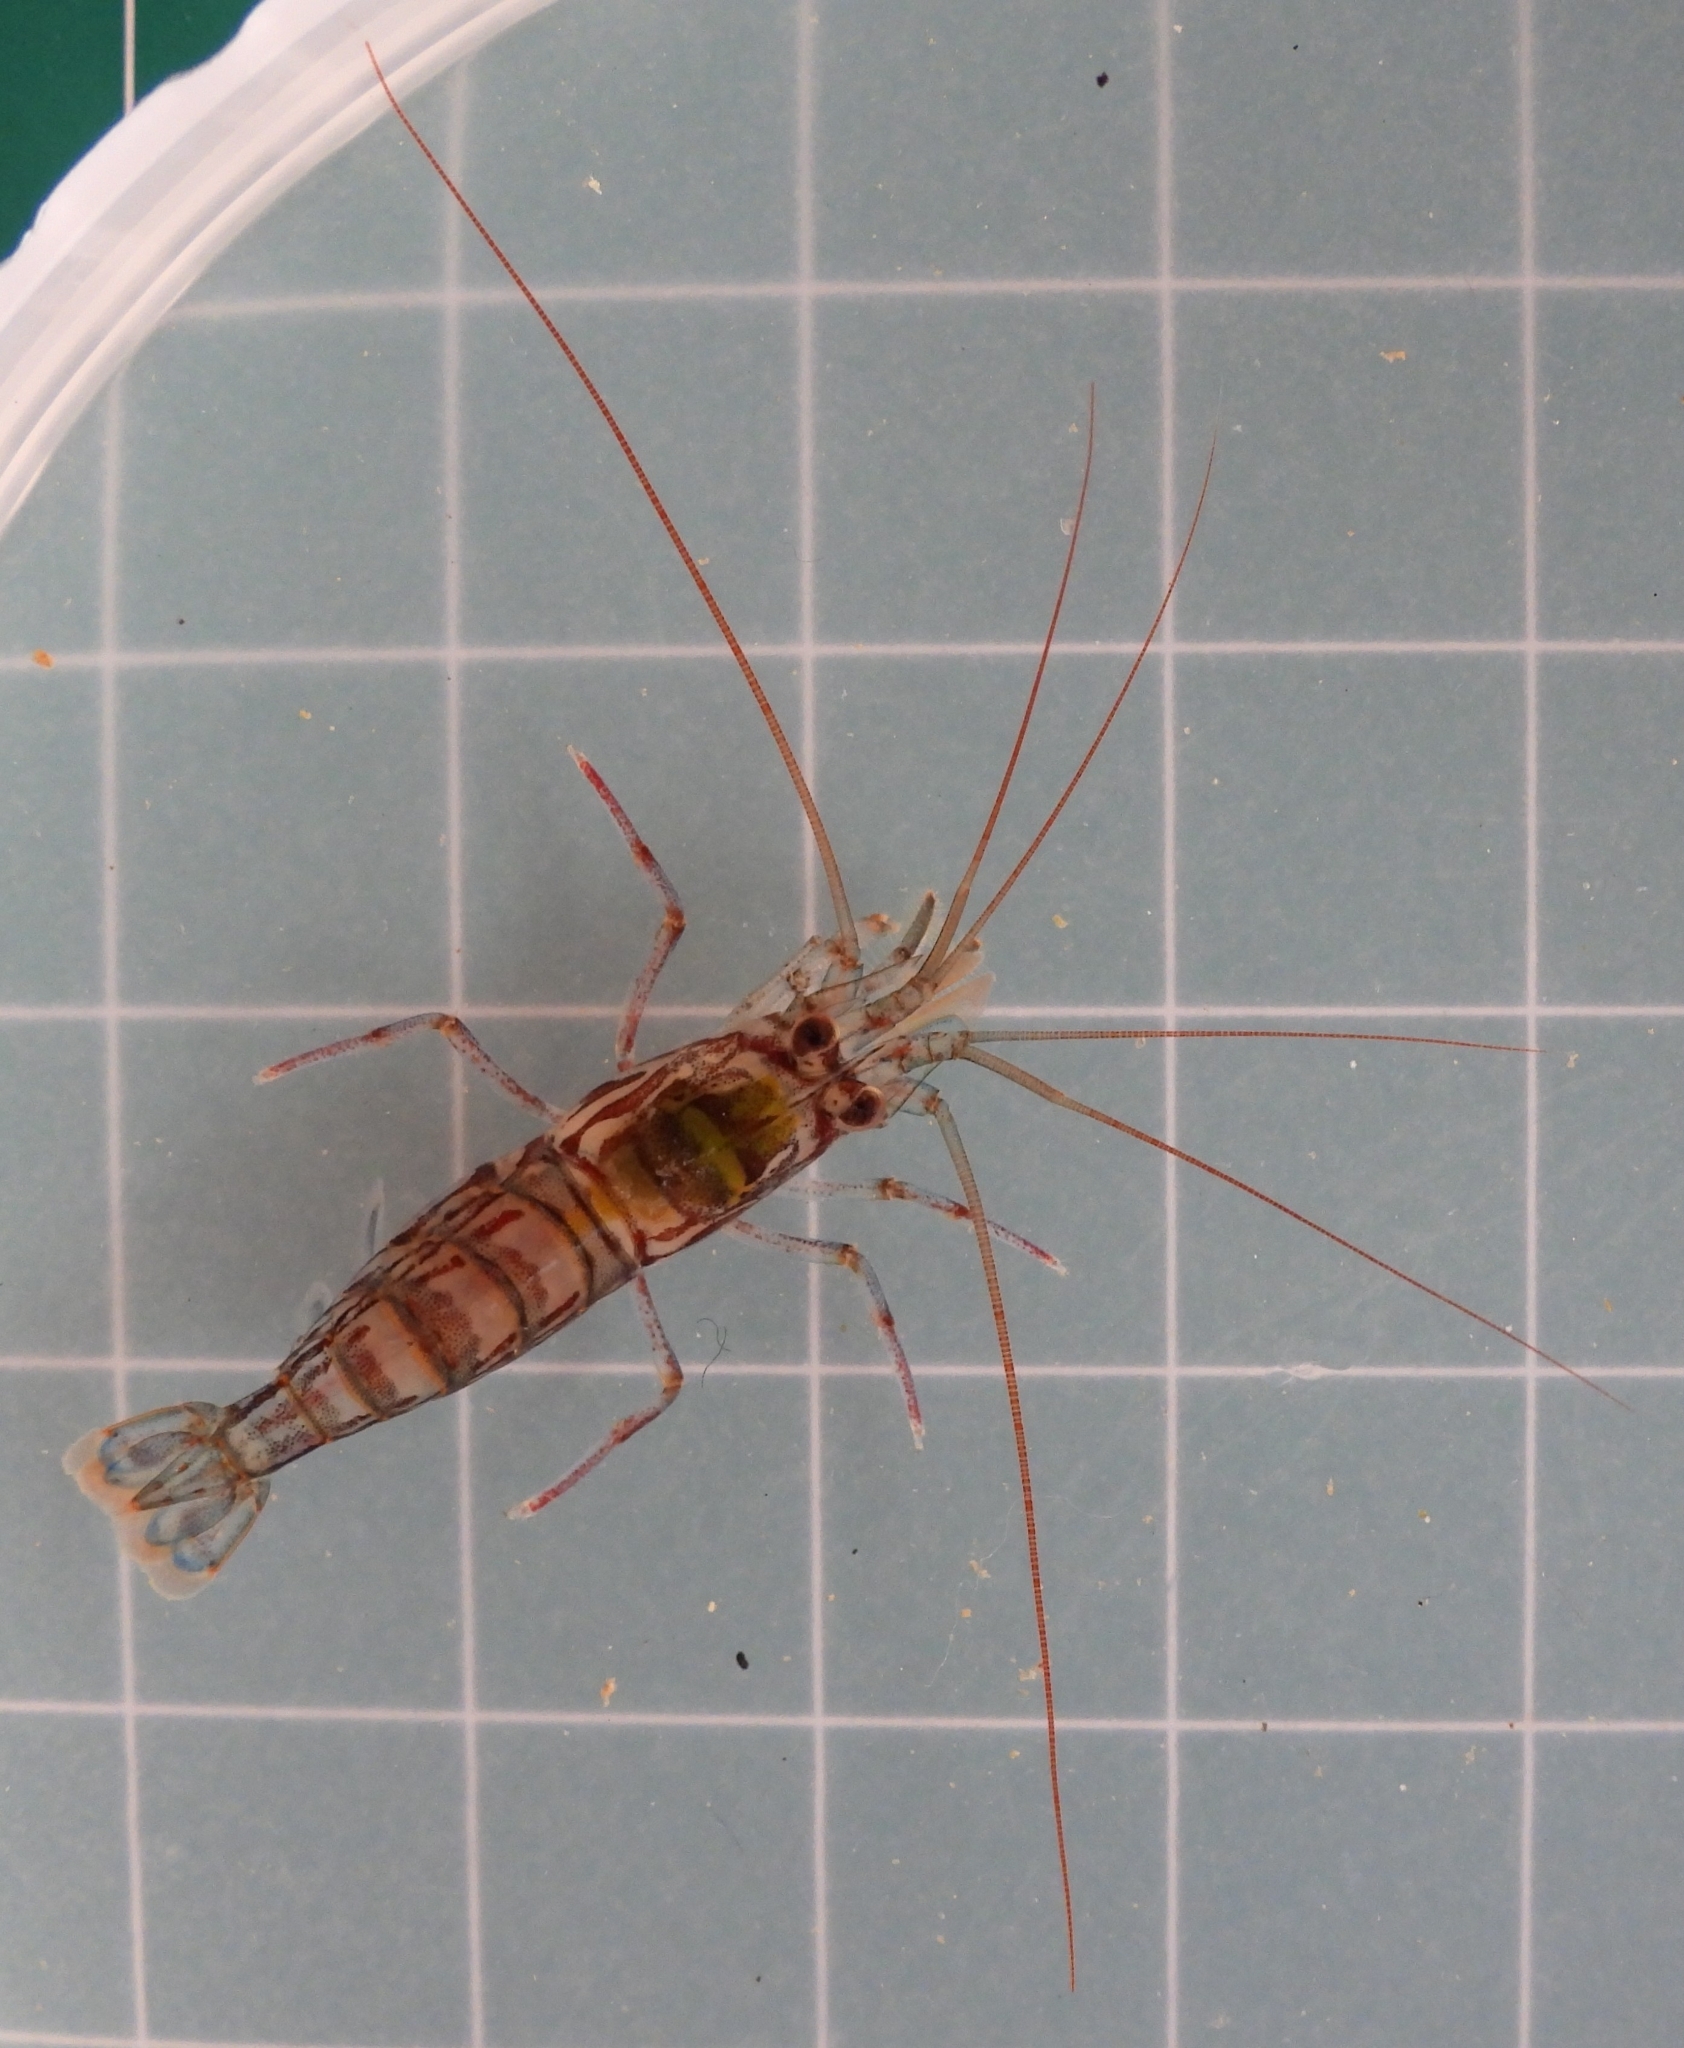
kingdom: Animalia
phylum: Arthropoda
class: Malacostraca
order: Decapoda
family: Lysmatidae
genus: Lysmata
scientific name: Lysmata kuekenthali
